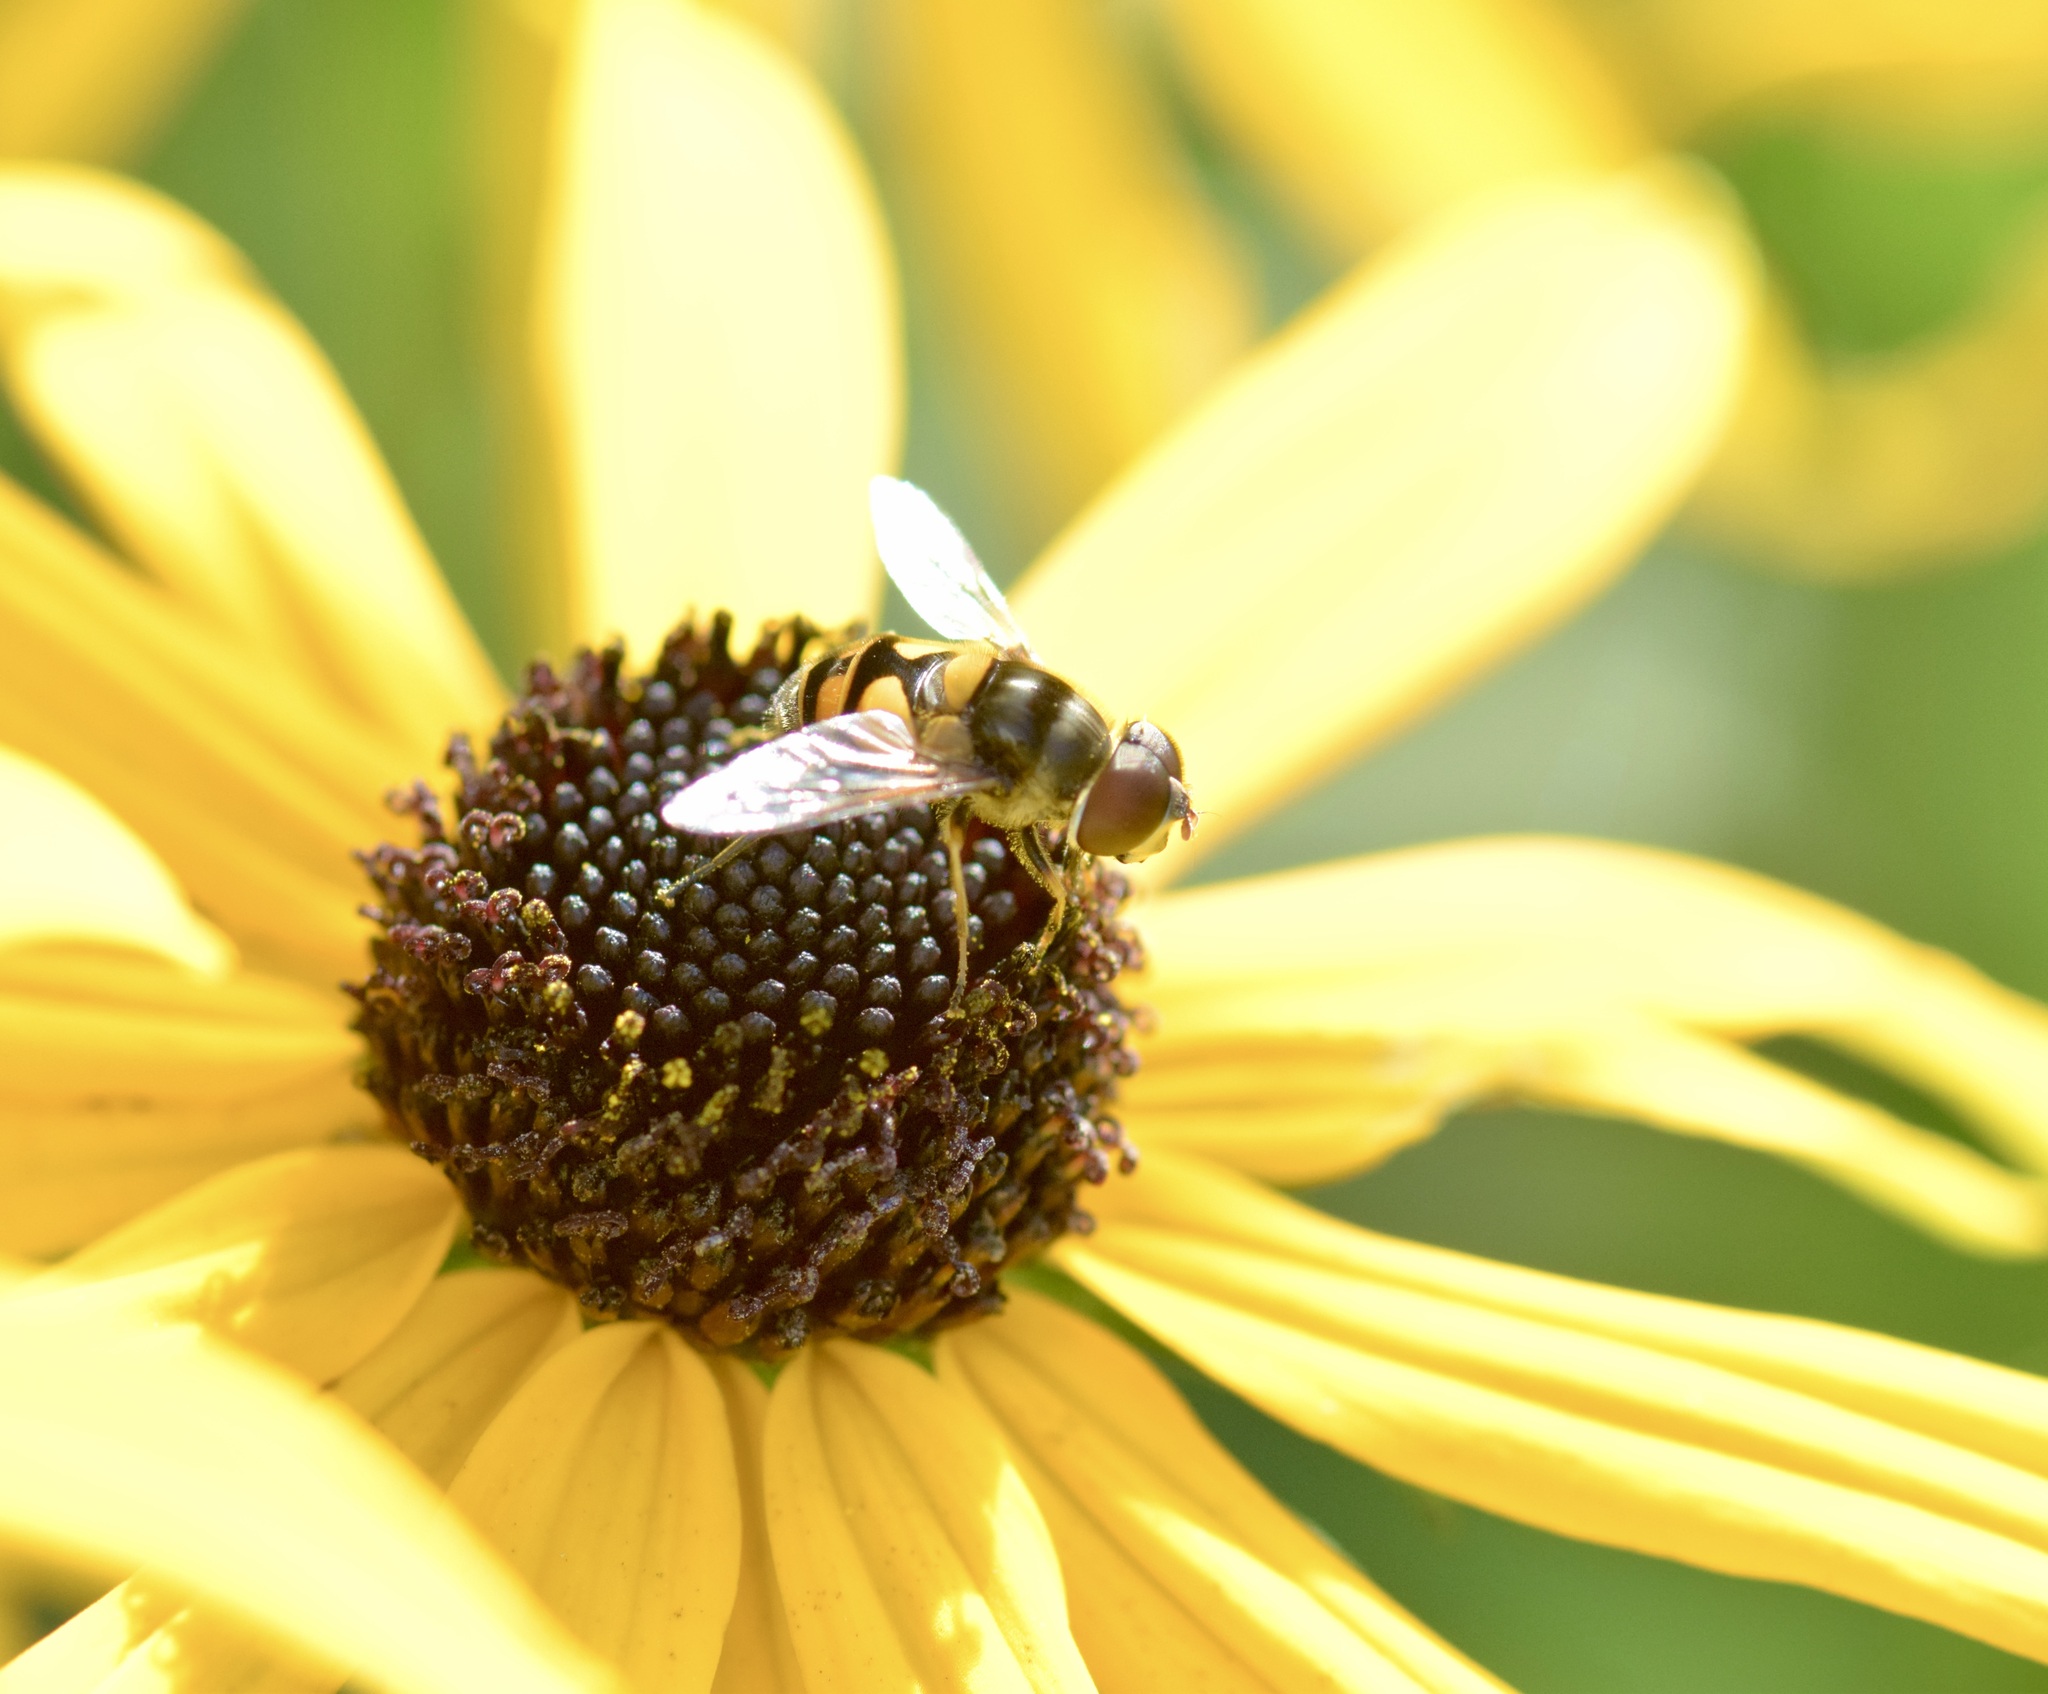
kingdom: Animalia
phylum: Arthropoda
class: Insecta
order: Diptera
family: Syrphidae
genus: Eristalis
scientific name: Eristalis transversa
